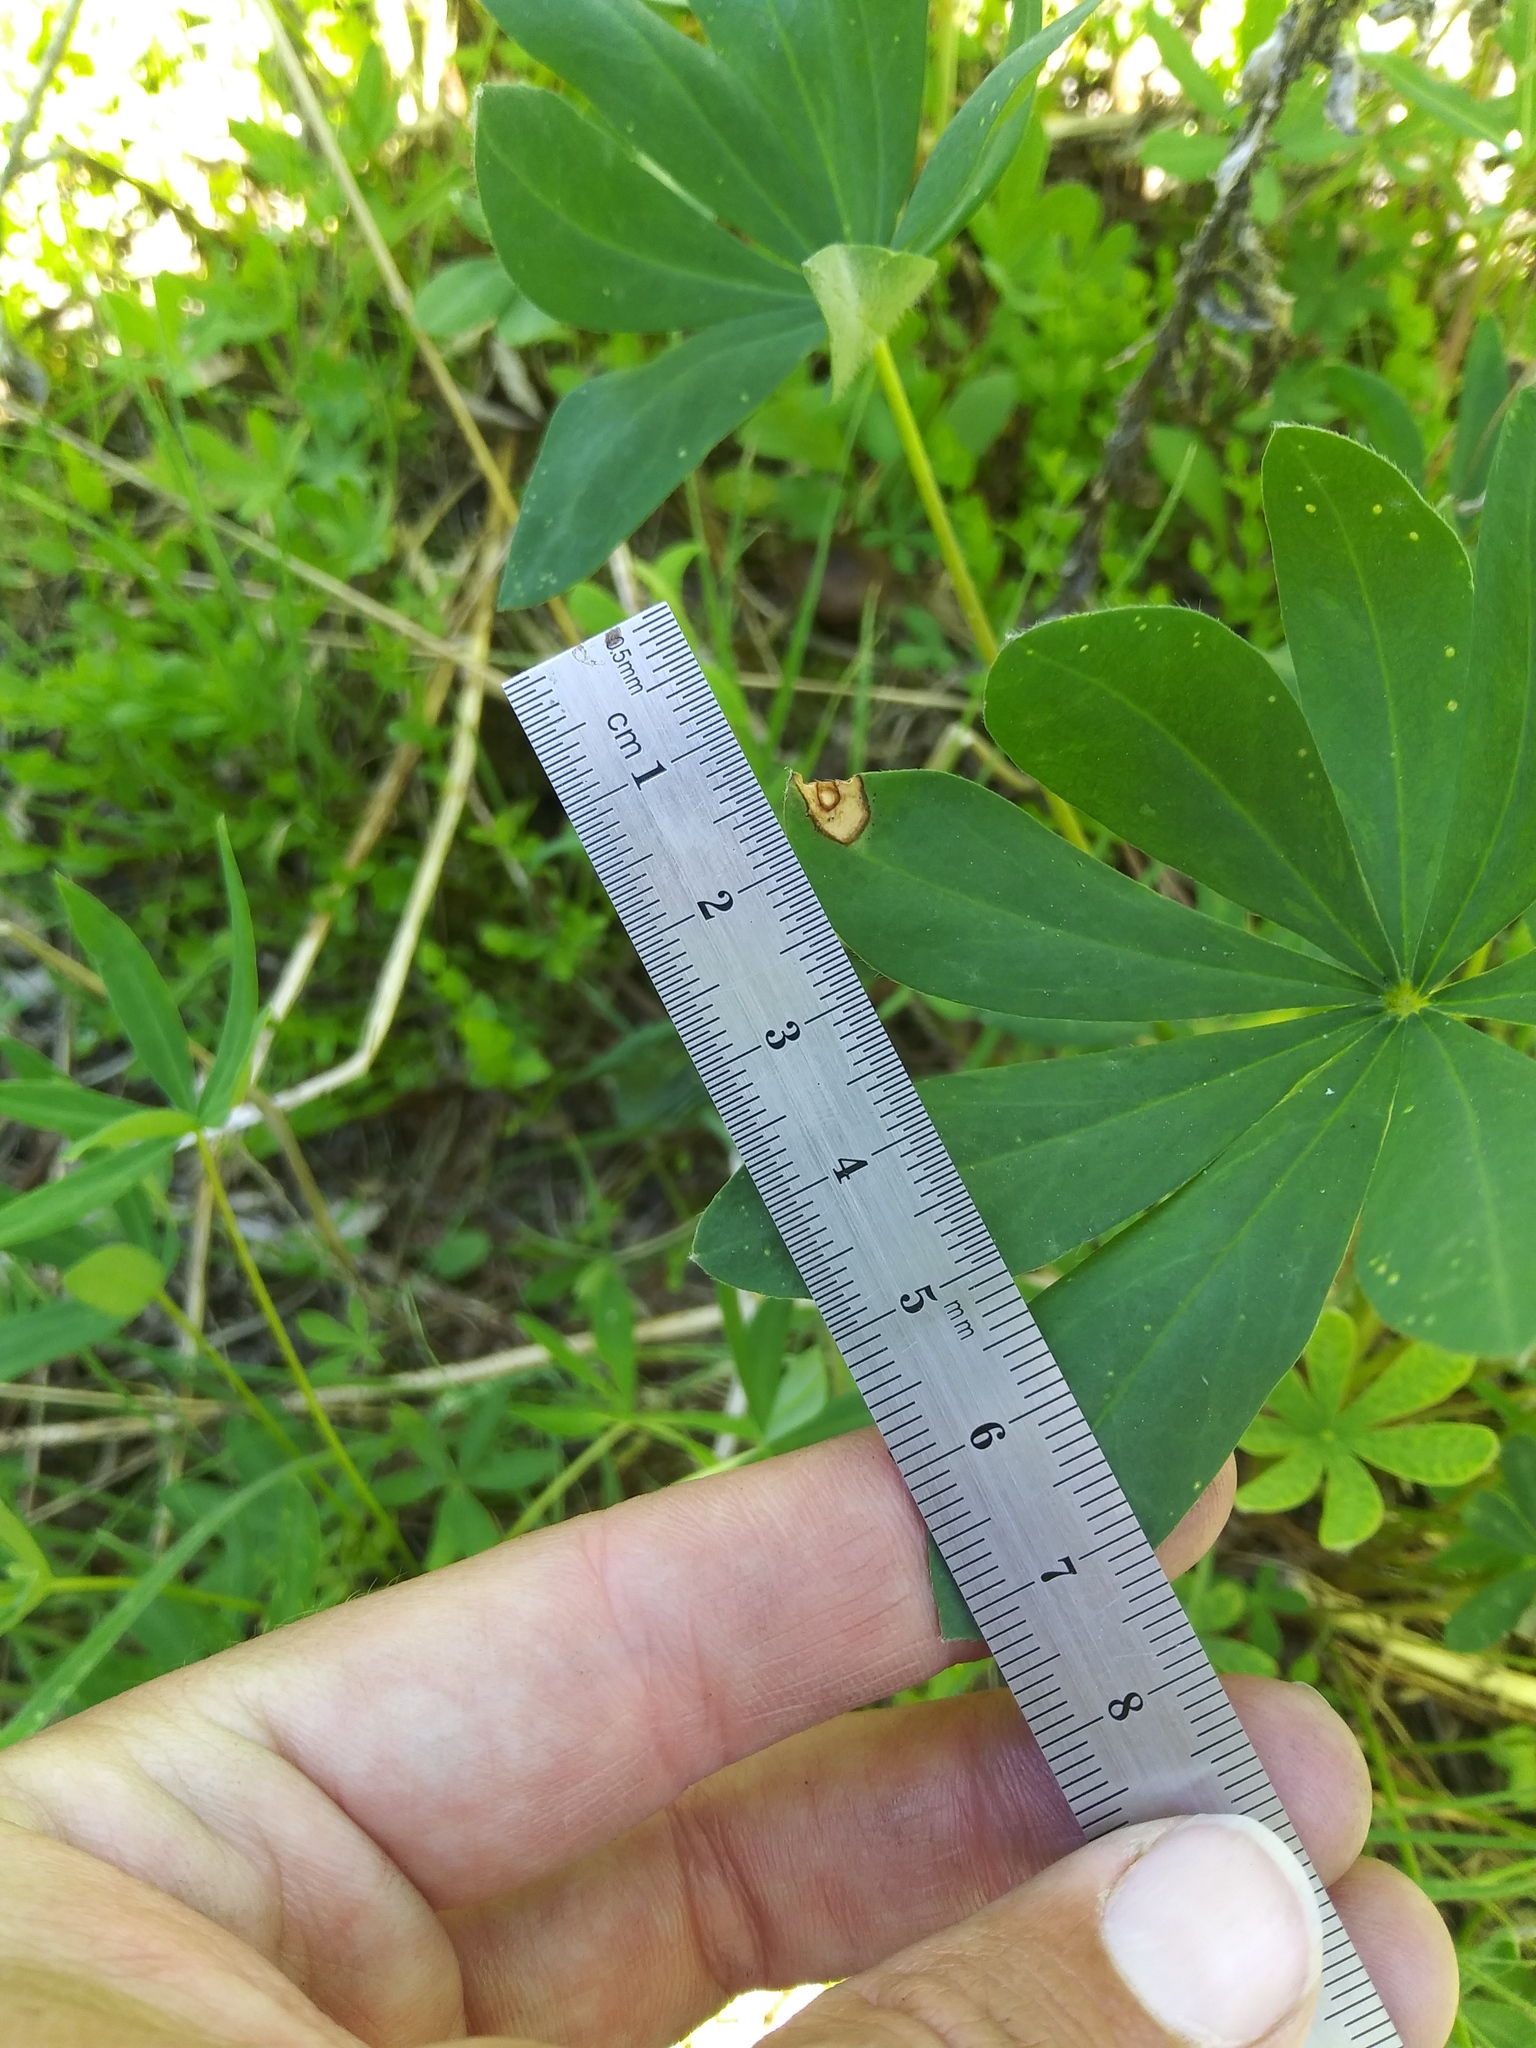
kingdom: Plantae
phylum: Tracheophyta
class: Magnoliopsida
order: Fabales
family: Fabaceae
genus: Lupinus
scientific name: Lupinus polyphyllus
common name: Garden lupin
